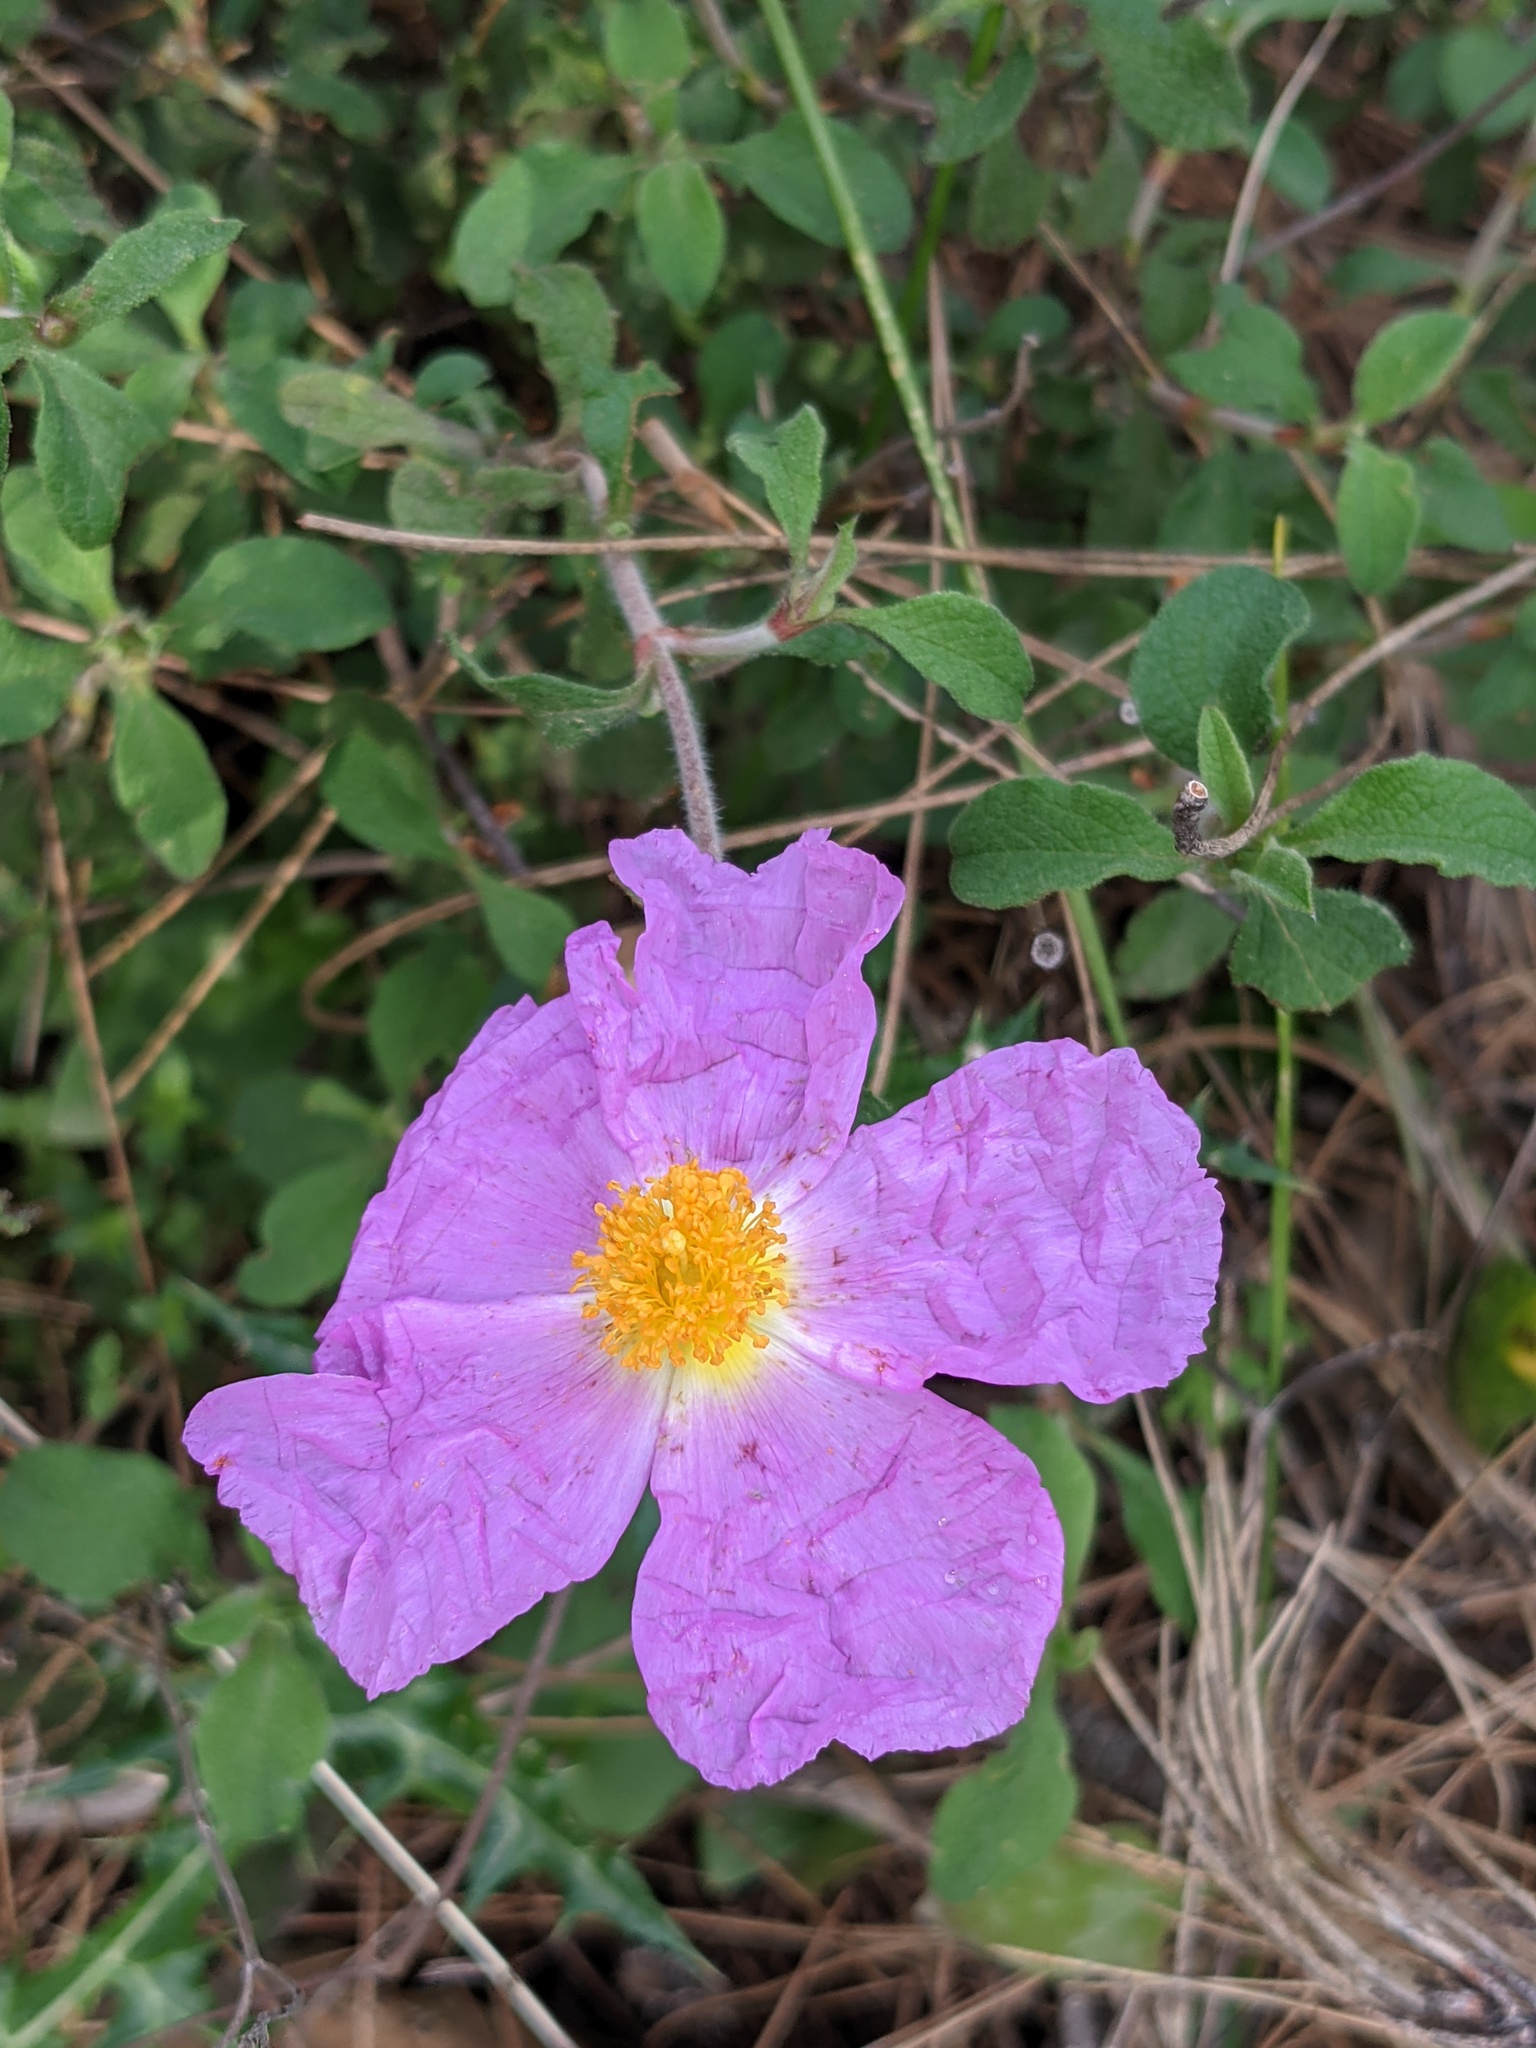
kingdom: Plantae
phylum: Tracheophyta
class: Magnoliopsida
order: Malvales
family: Cistaceae
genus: Cistus
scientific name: Cistus creticus
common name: Cretan rockrose
